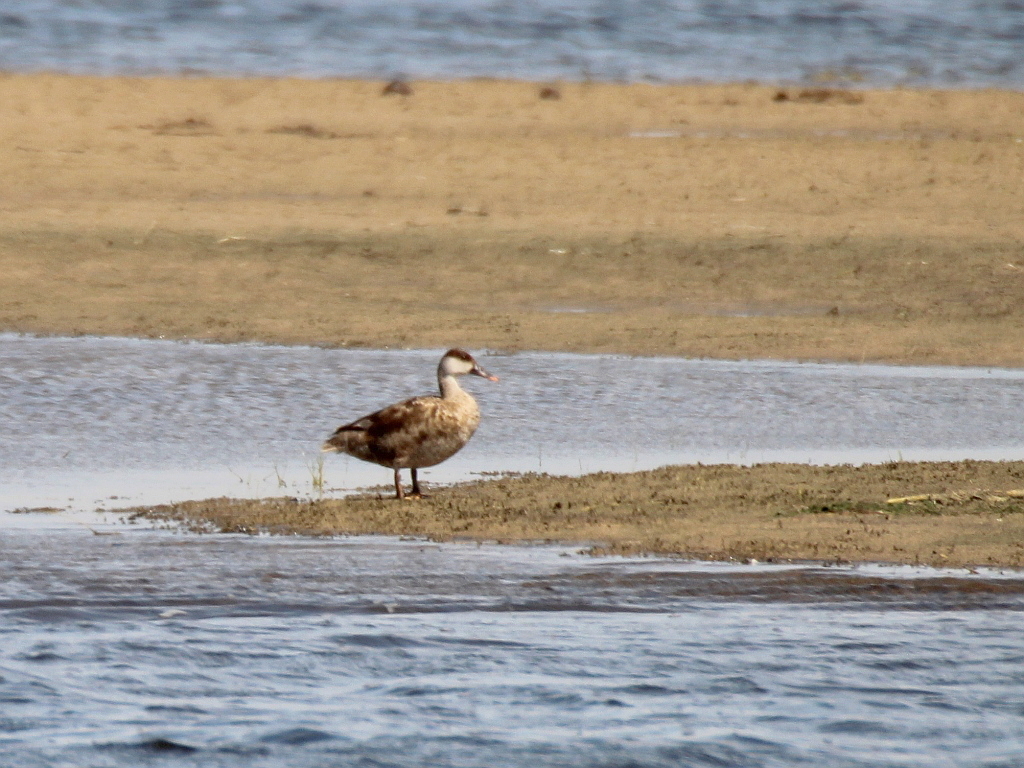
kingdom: Animalia
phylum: Chordata
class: Aves
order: Anseriformes
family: Anatidae
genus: Netta
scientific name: Netta rufina
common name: Red-crested pochard
